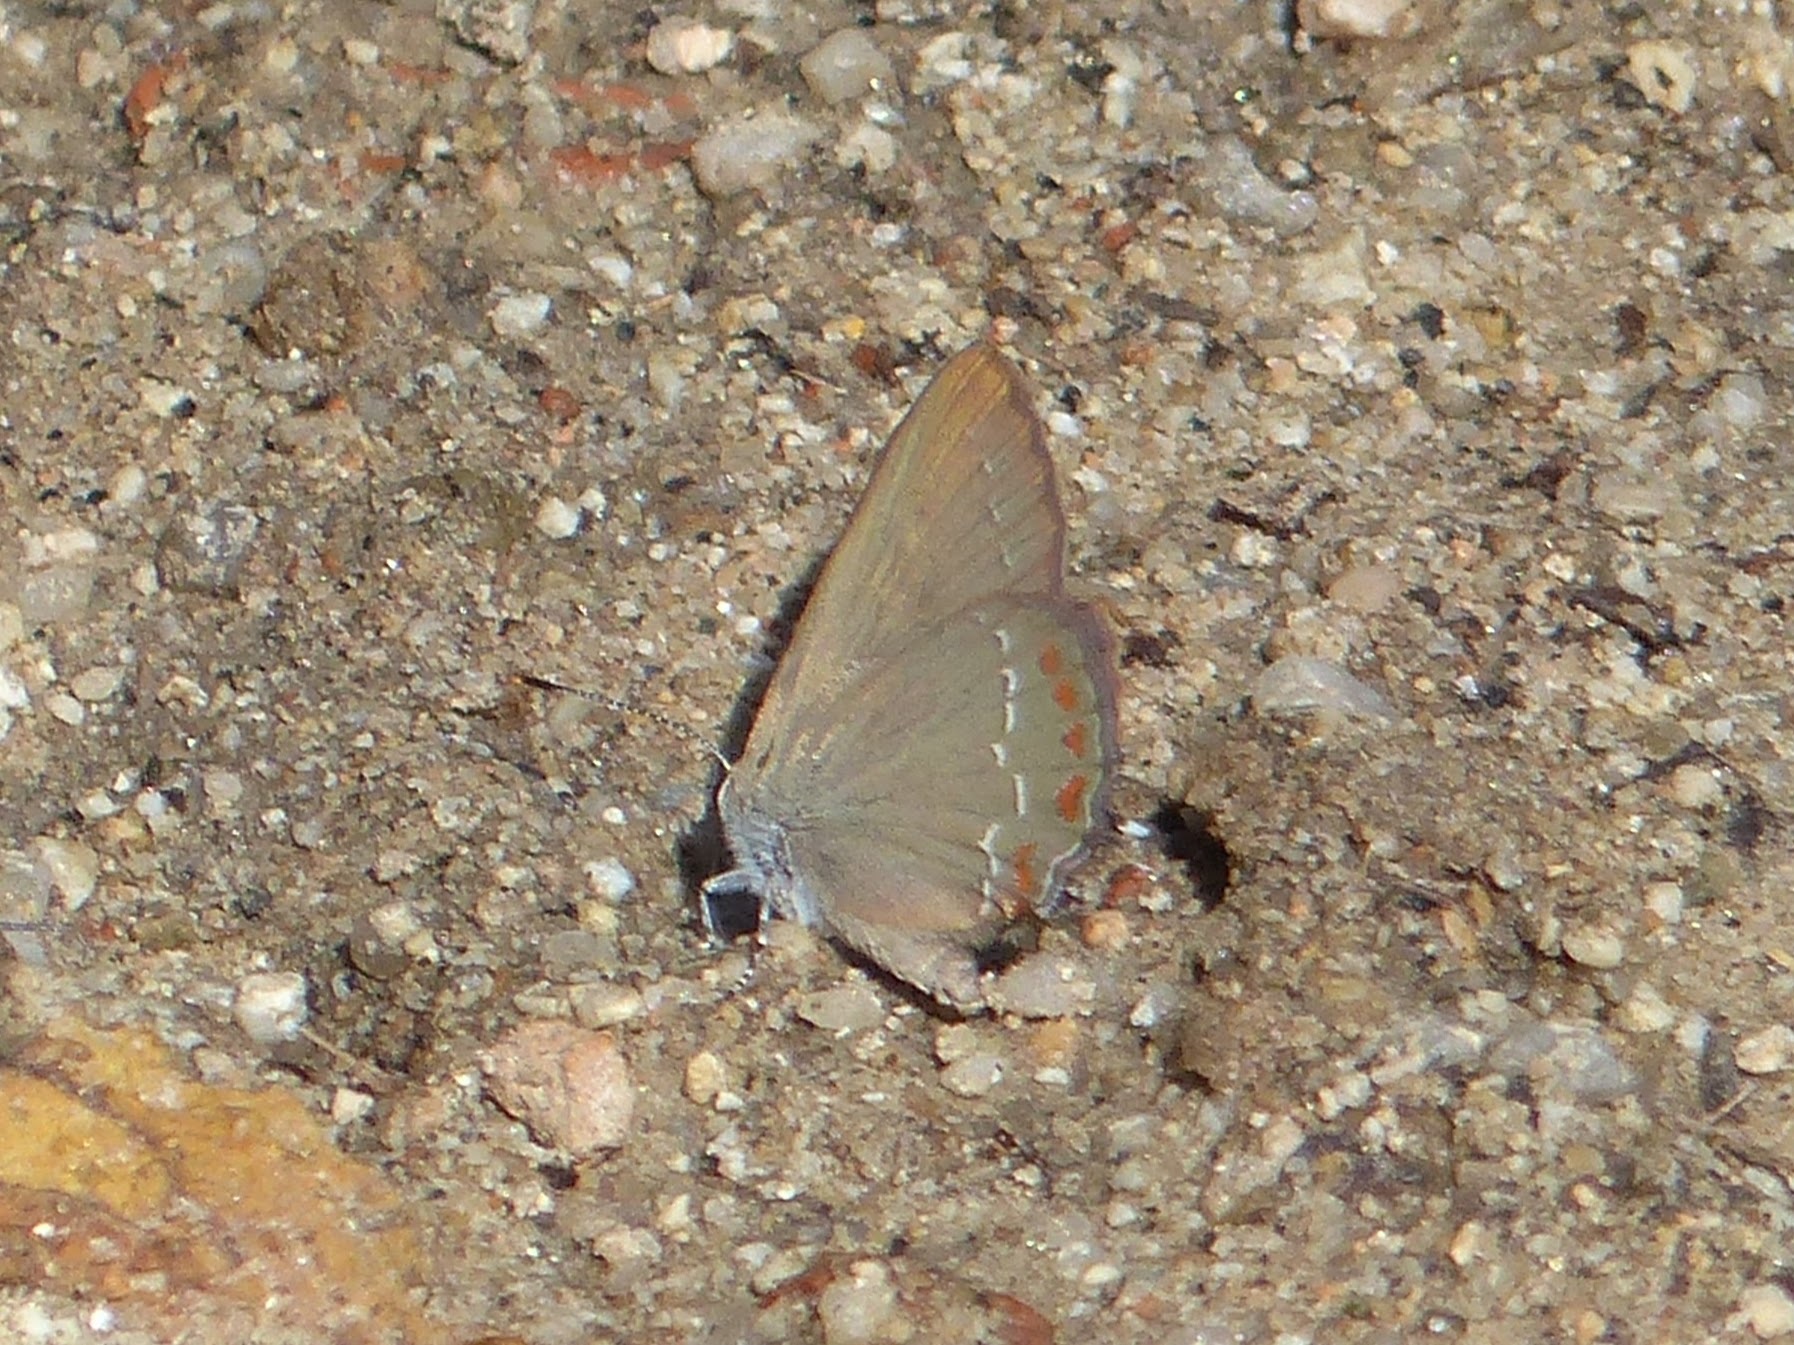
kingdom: Animalia
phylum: Arthropoda
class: Insecta
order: Lepidoptera
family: Lycaenidae
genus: Fixsenia
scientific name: Fixsenia esculi
